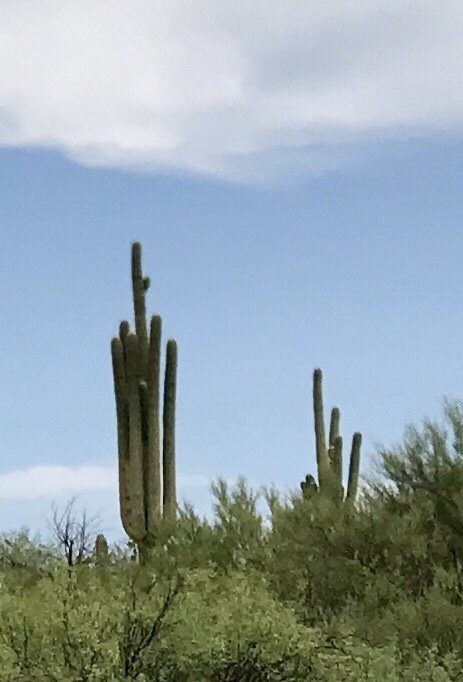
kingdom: Plantae
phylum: Tracheophyta
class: Magnoliopsida
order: Caryophyllales
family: Cactaceae
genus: Carnegiea
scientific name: Carnegiea gigantea
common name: Saguaro
